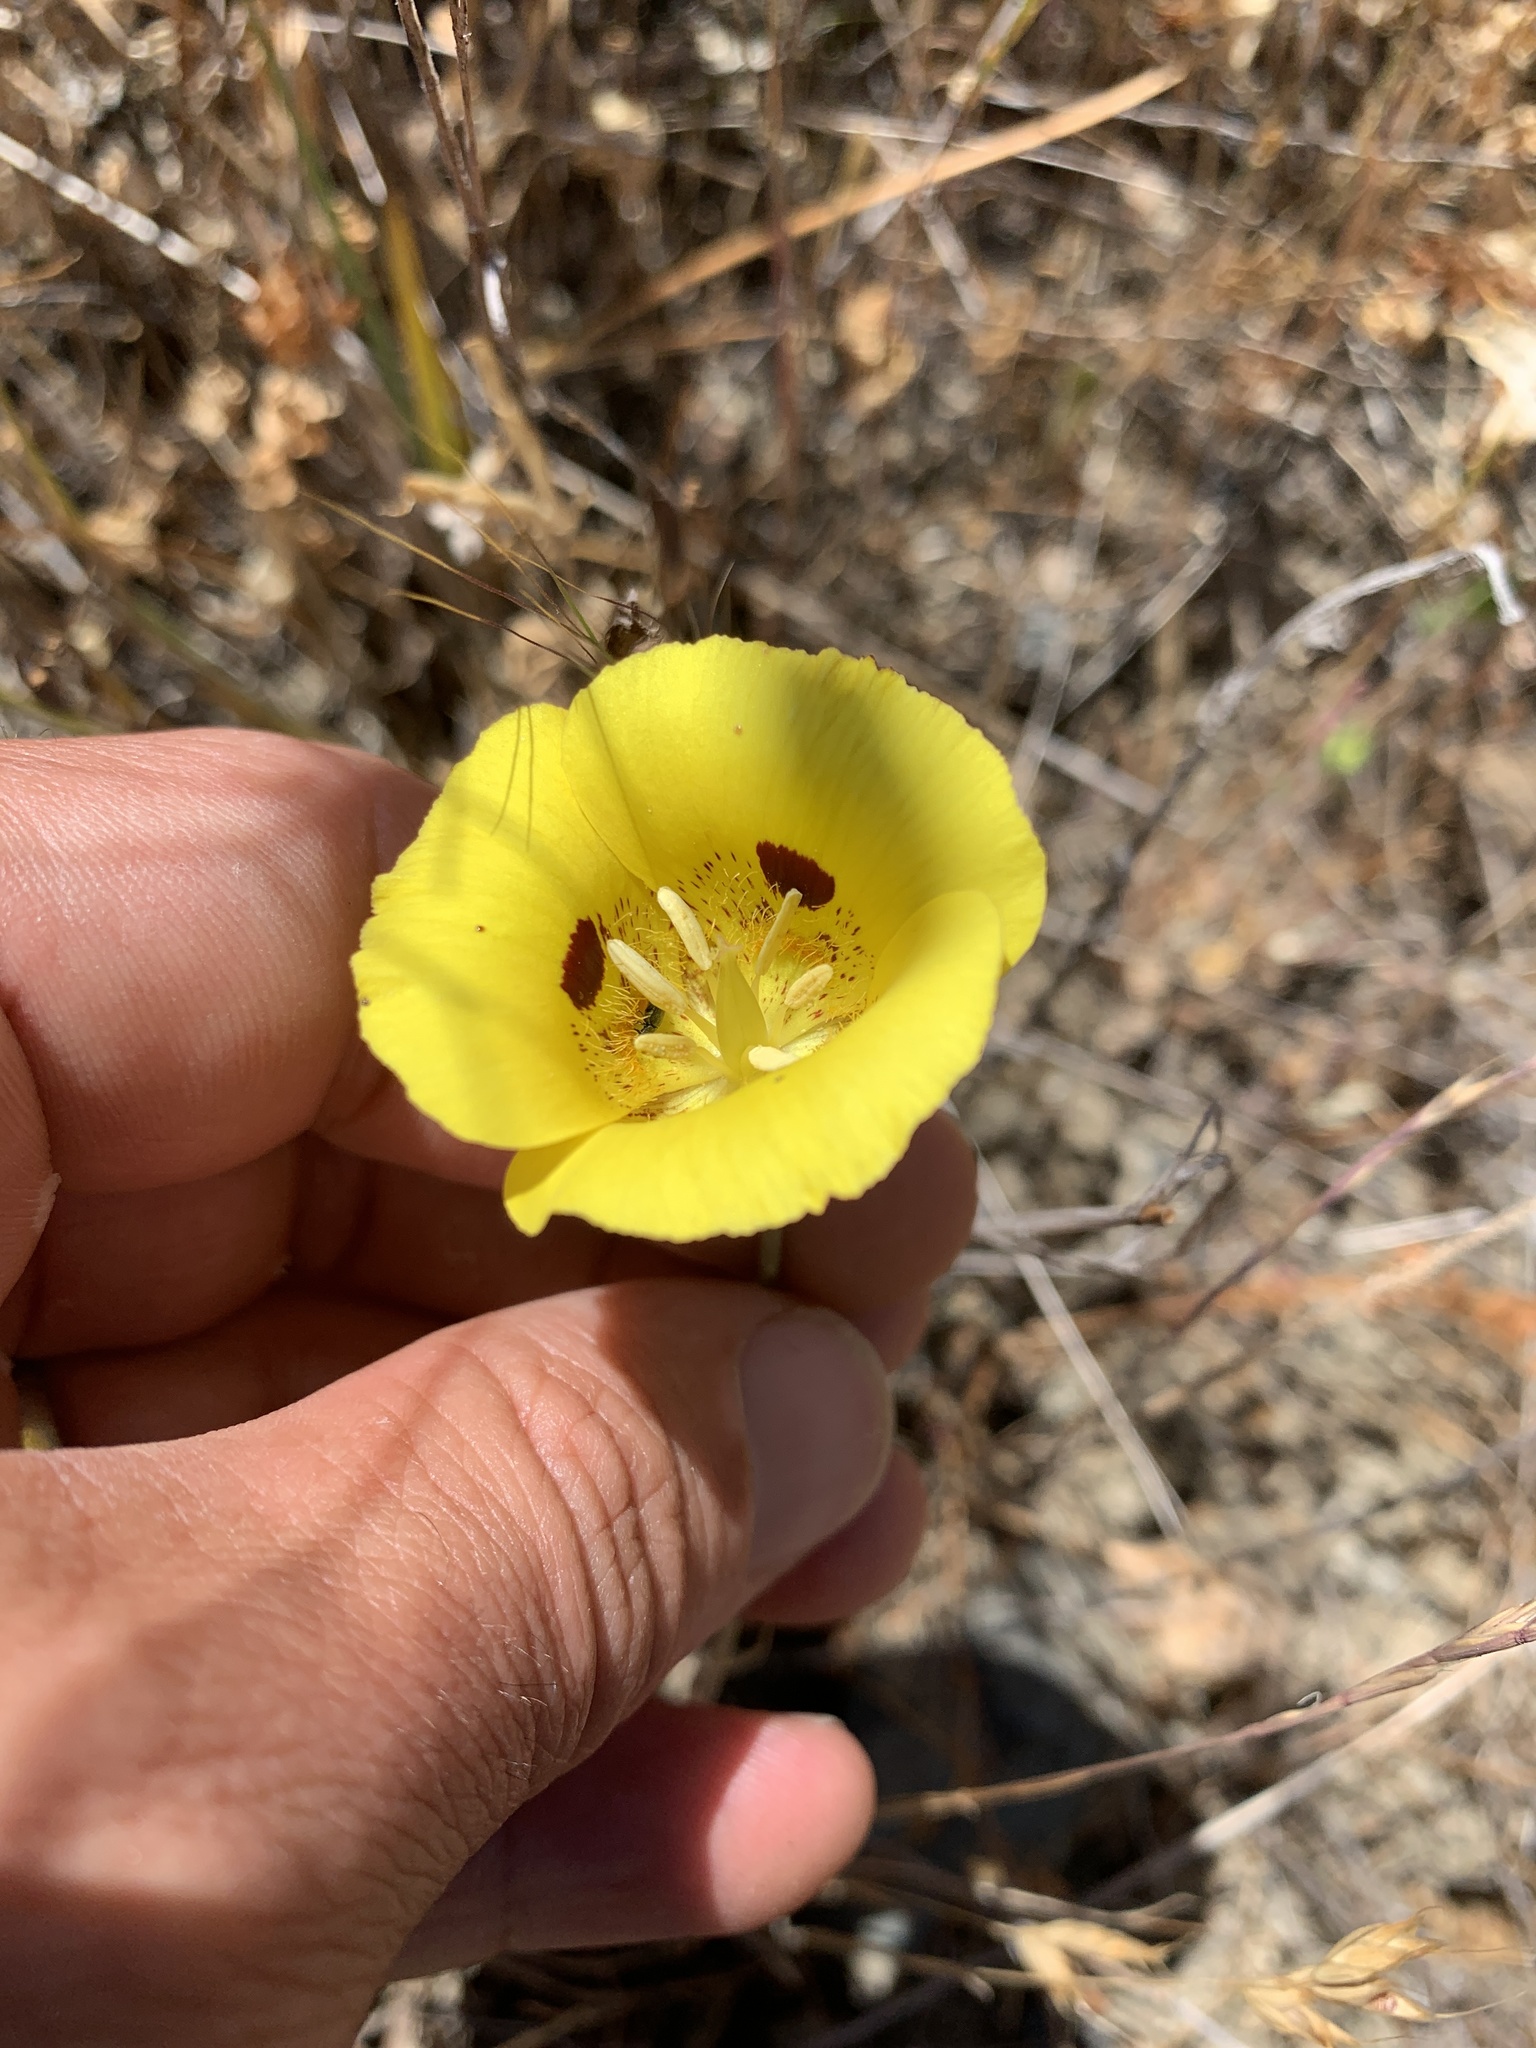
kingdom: Plantae
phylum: Tracheophyta
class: Liliopsida
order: Liliales
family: Liliaceae
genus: Calochortus
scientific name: Calochortus luteus
